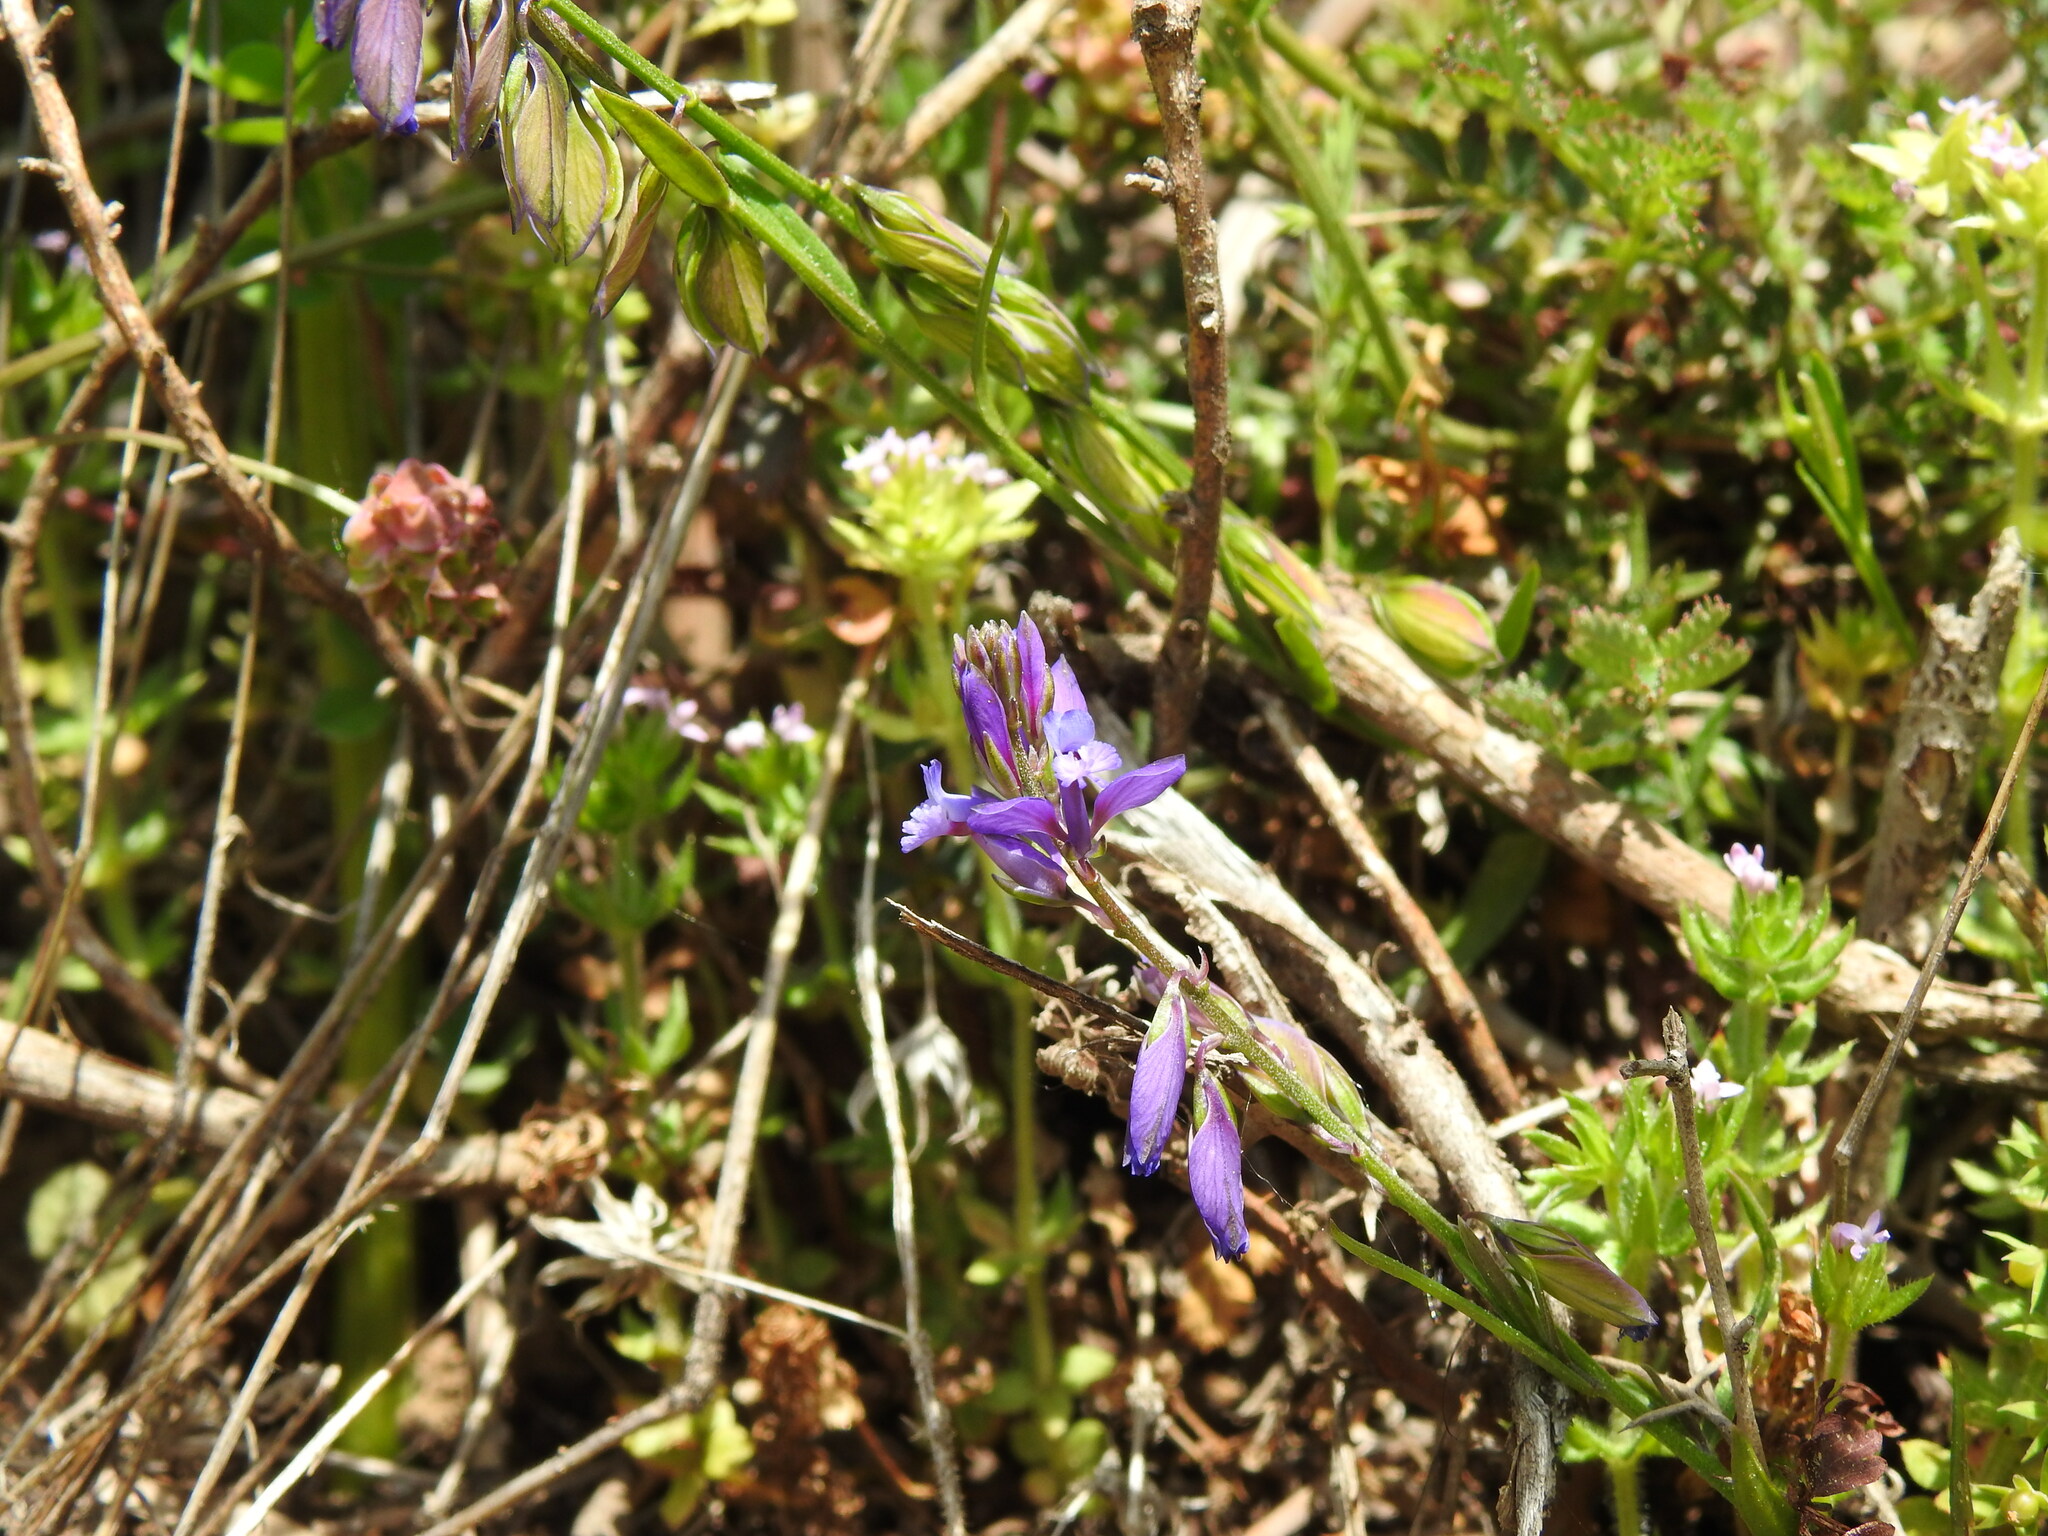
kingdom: Plantae
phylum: Tracheophyta
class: Magnoliopsida
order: Fabales
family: Polygalaceae
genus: Polygala
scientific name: Polygala vulgaris
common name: Common milkwort
